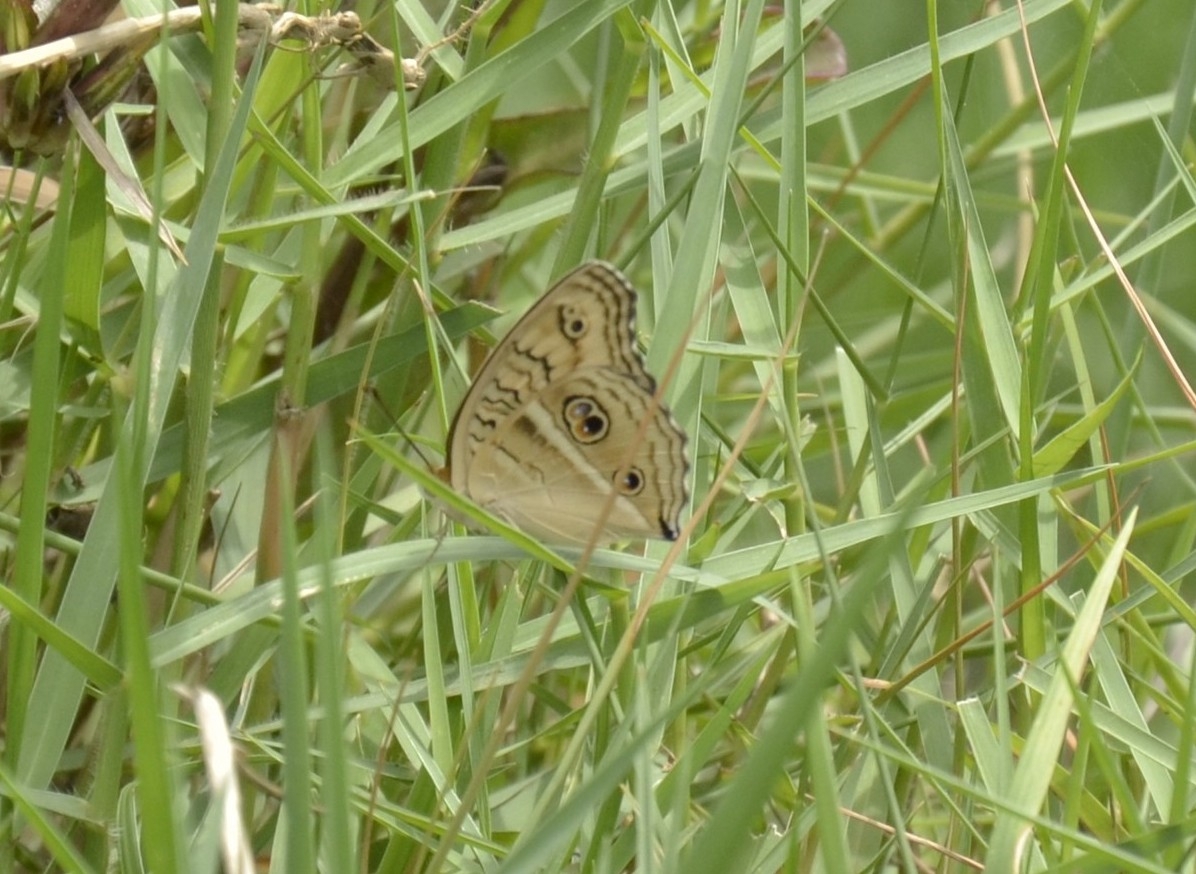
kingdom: Animalia
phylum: Arthropoda
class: Insecta
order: Lepidoptera
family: Nymphalidae
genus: Junonia
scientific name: Junonia almana
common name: Peacock pansy
